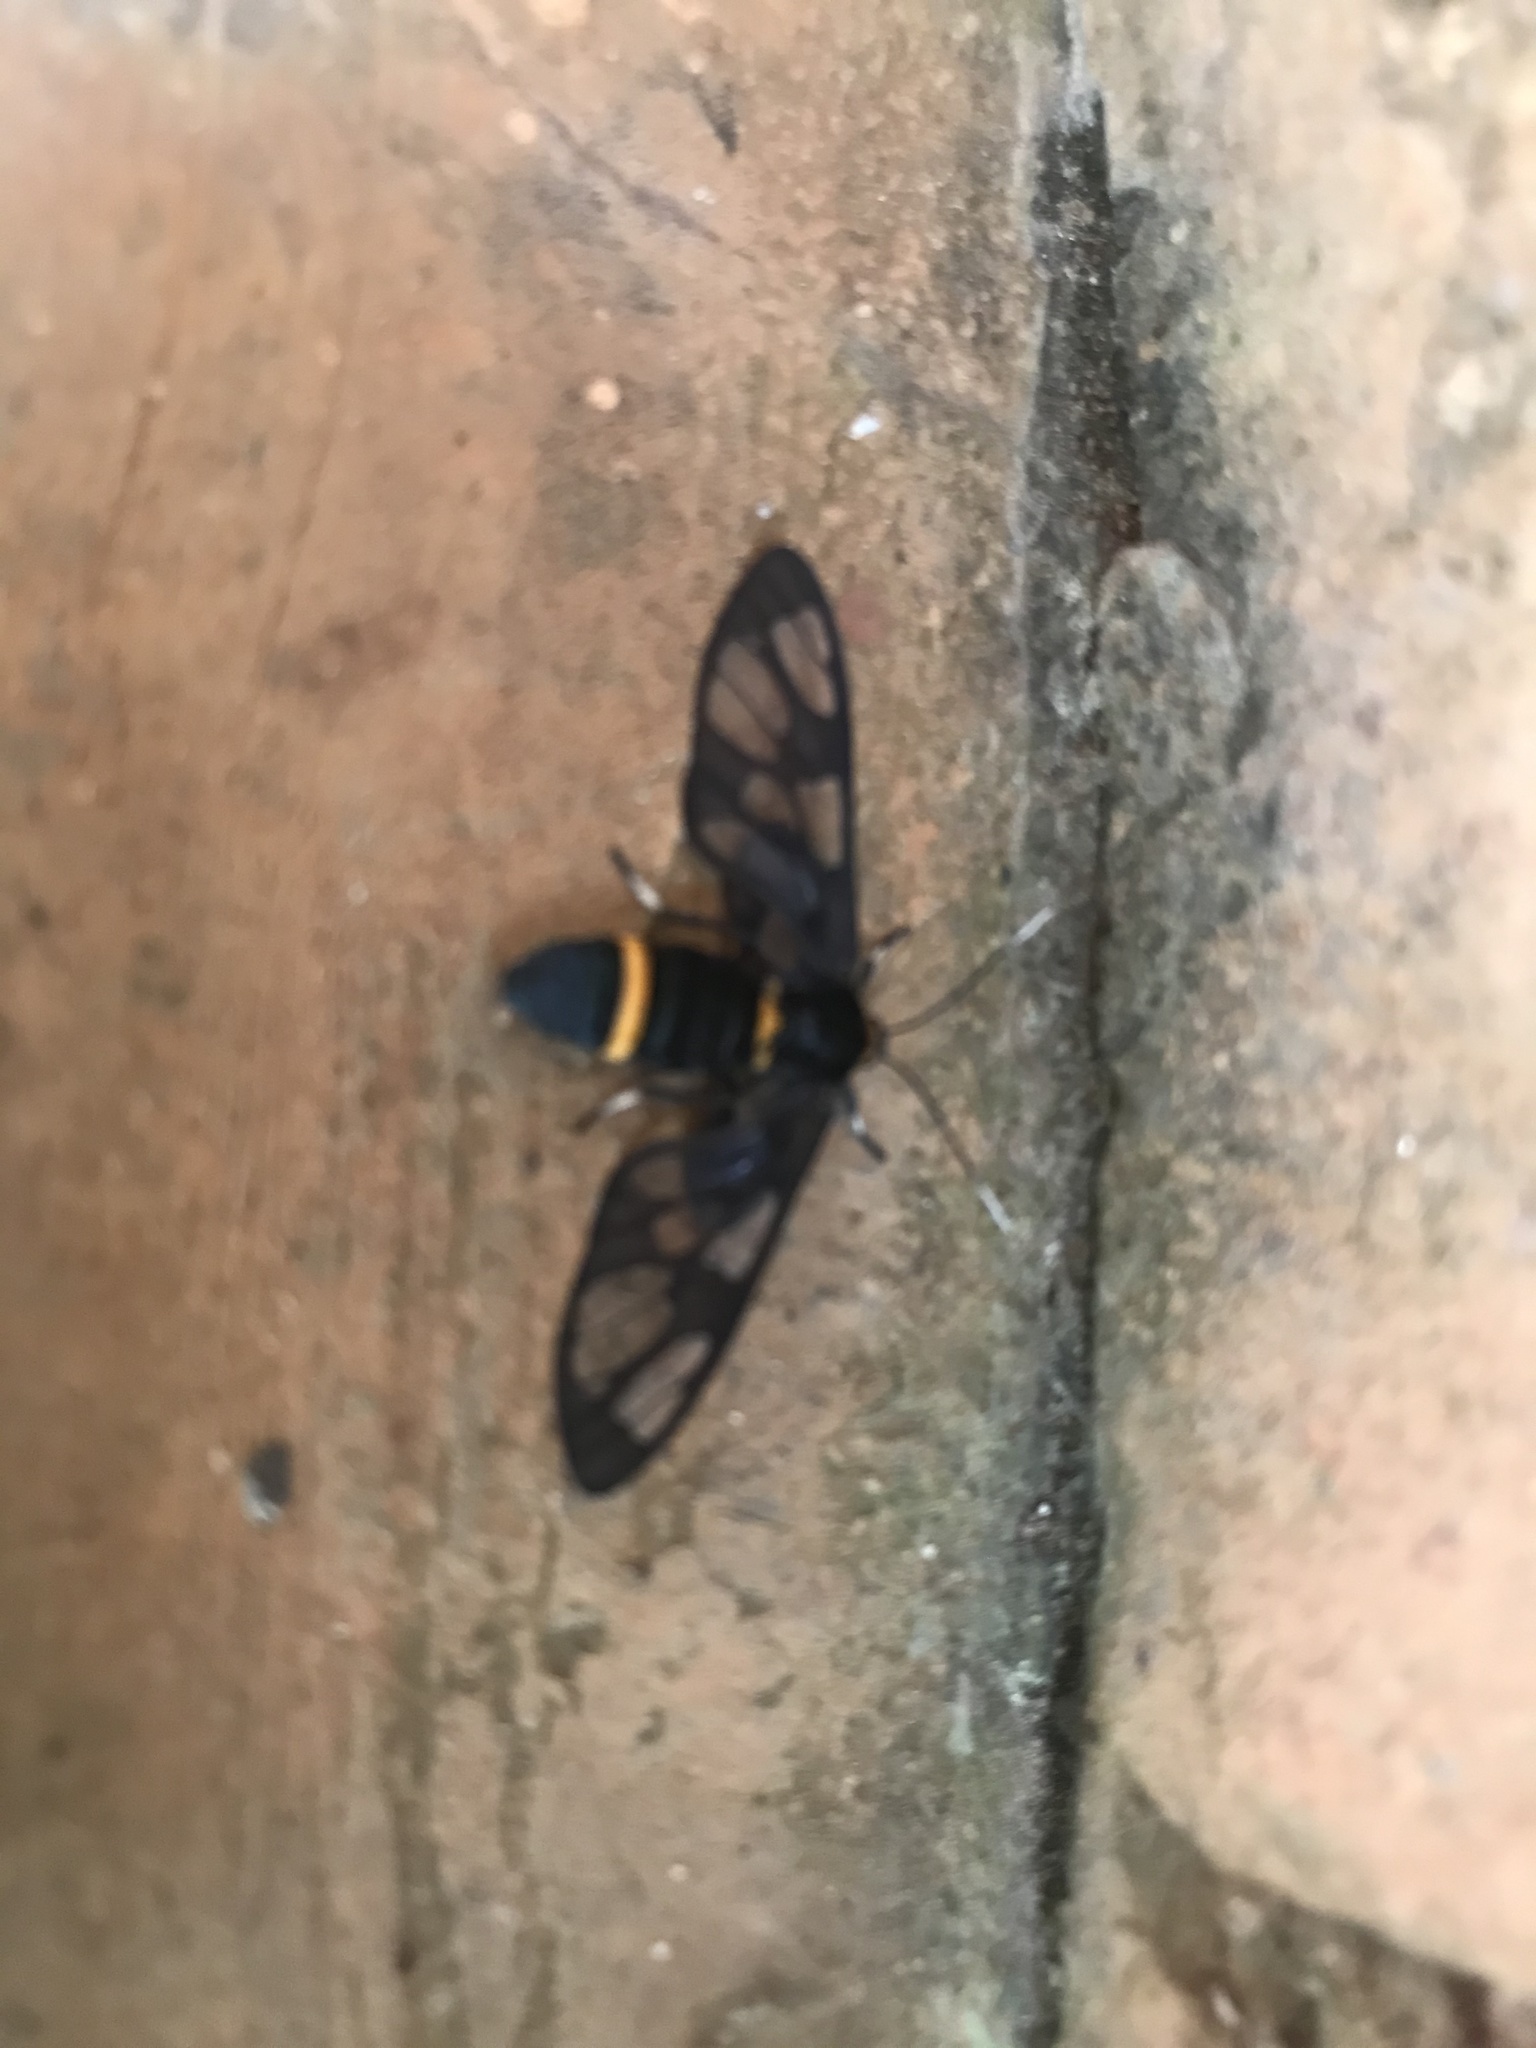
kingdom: Animalia
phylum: Arthropoda
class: Insecta
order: Lepidoptera
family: Erebidae
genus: Syntomoides
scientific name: Syntomoides imaon
